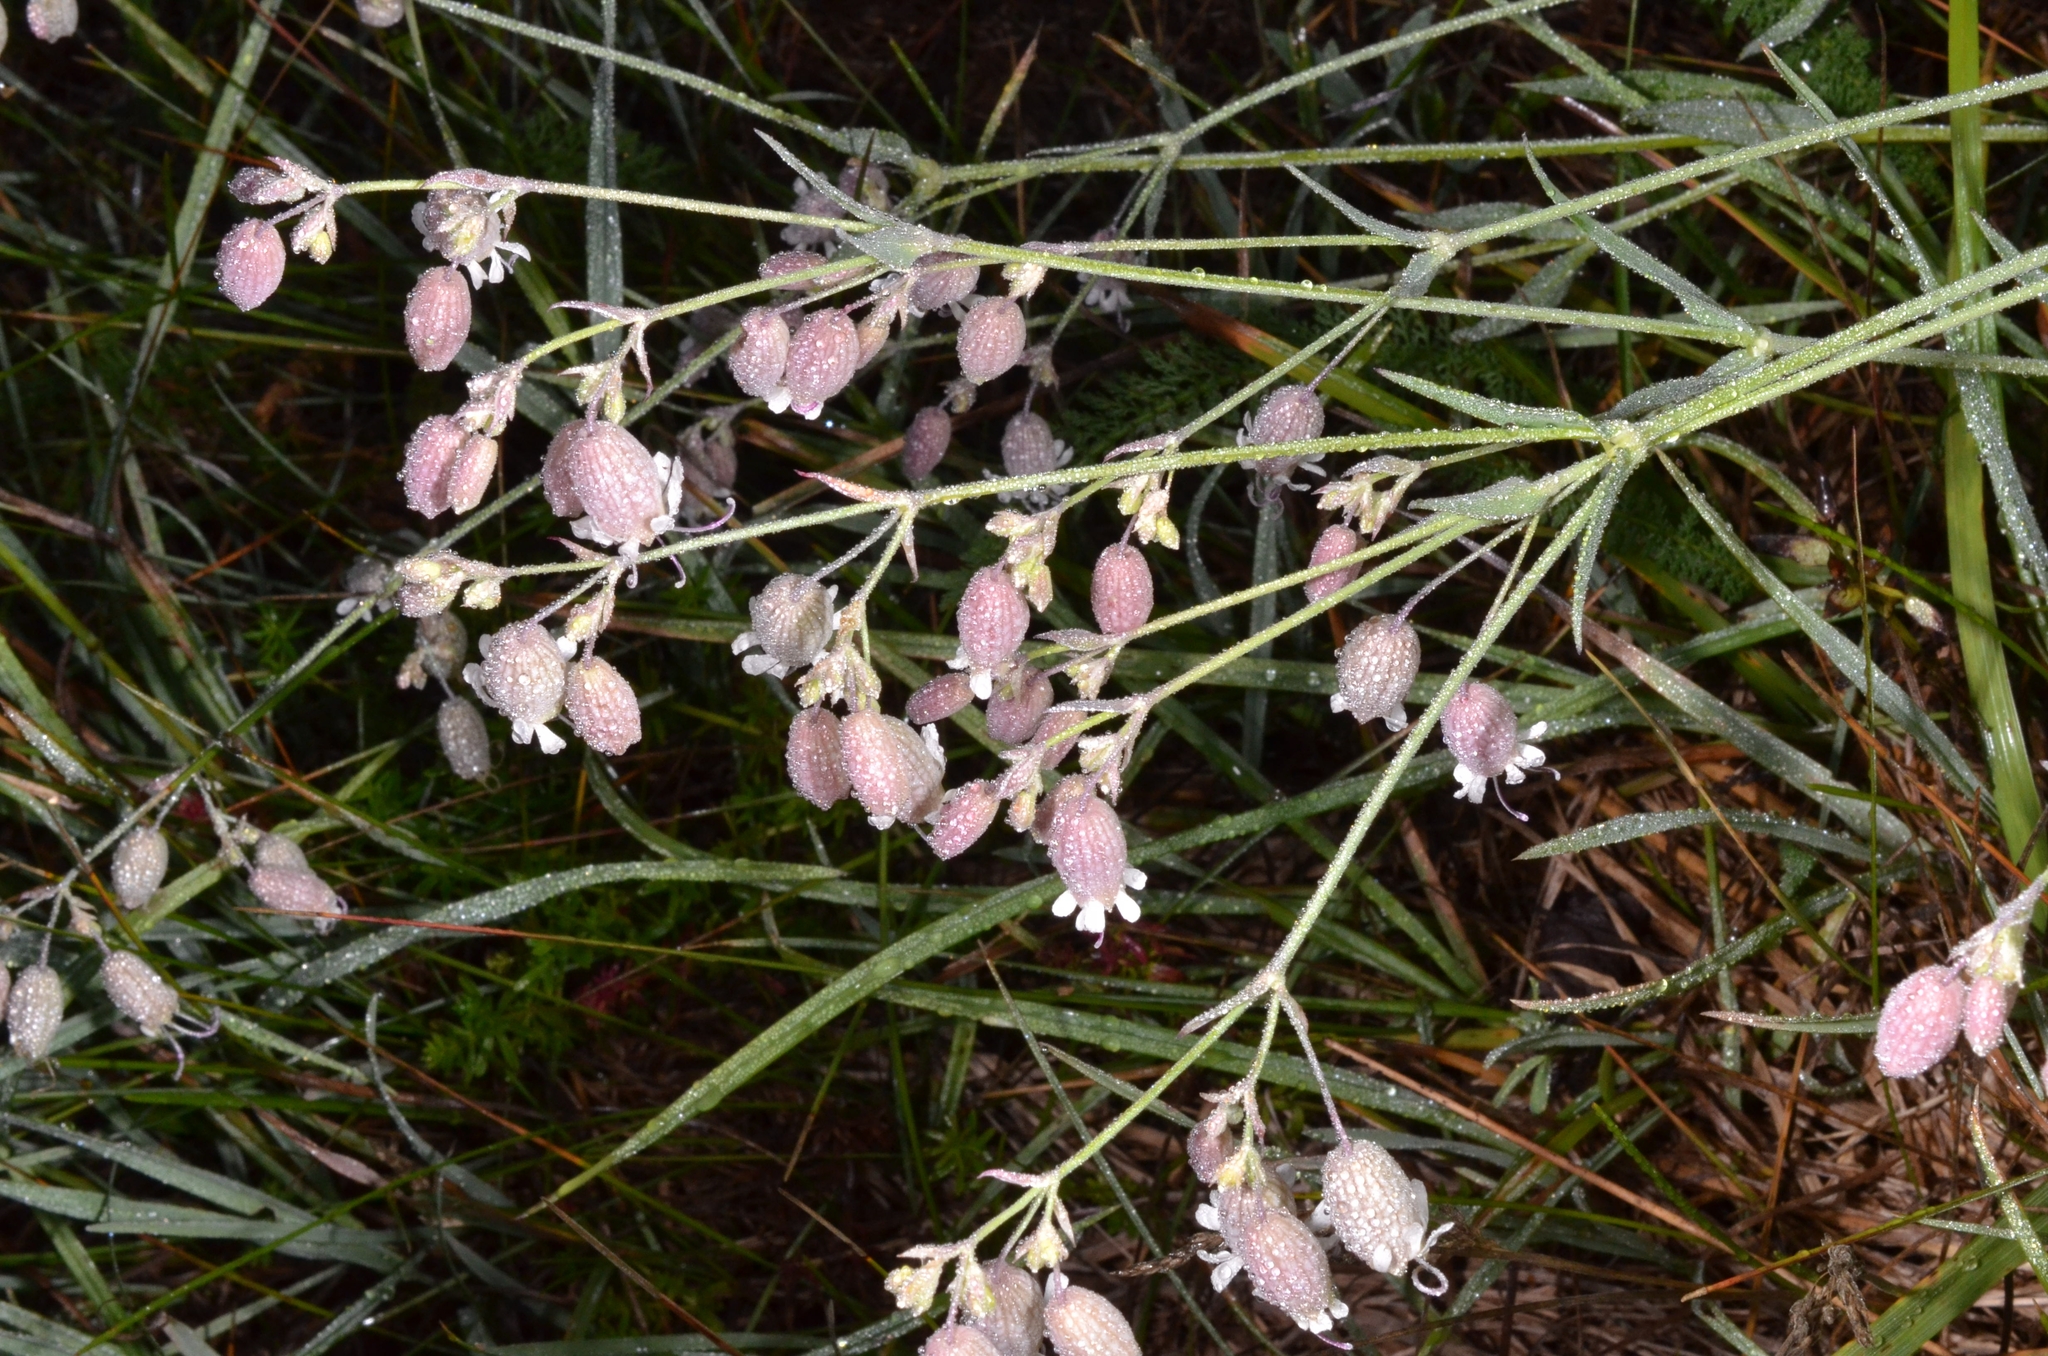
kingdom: Plantae
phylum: Tracheophyta
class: Magnoliopsida
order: Caryophyllales
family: Caryophyllaceae
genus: Silene
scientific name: Silene vulgaris
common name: Bladder campion
